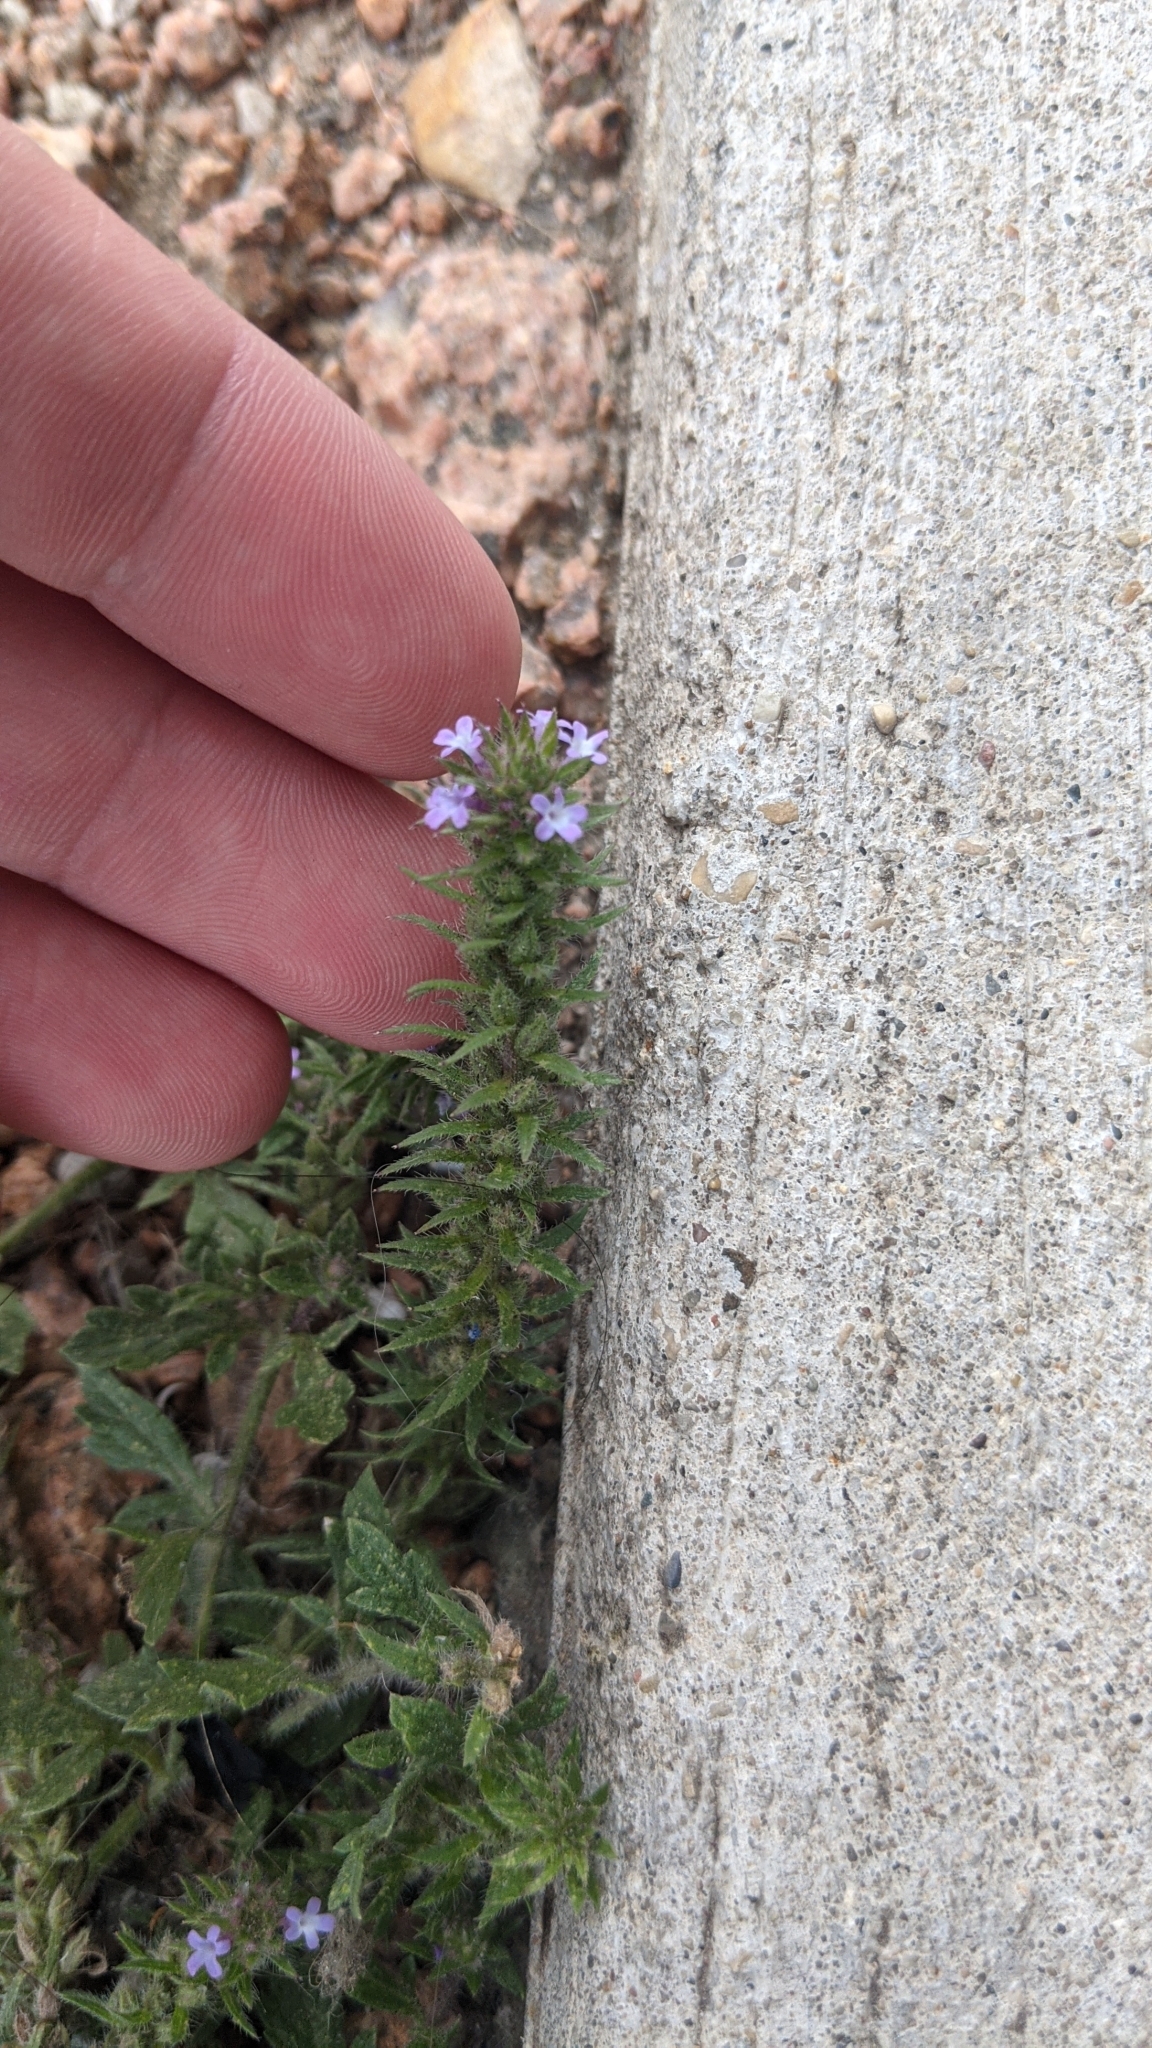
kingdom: Plantae
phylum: Tracheophyta
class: Magnoliopsida
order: Lamiales
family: Verbenaceae
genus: Verbena
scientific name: Verbena bracteata
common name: Bracted vervain
